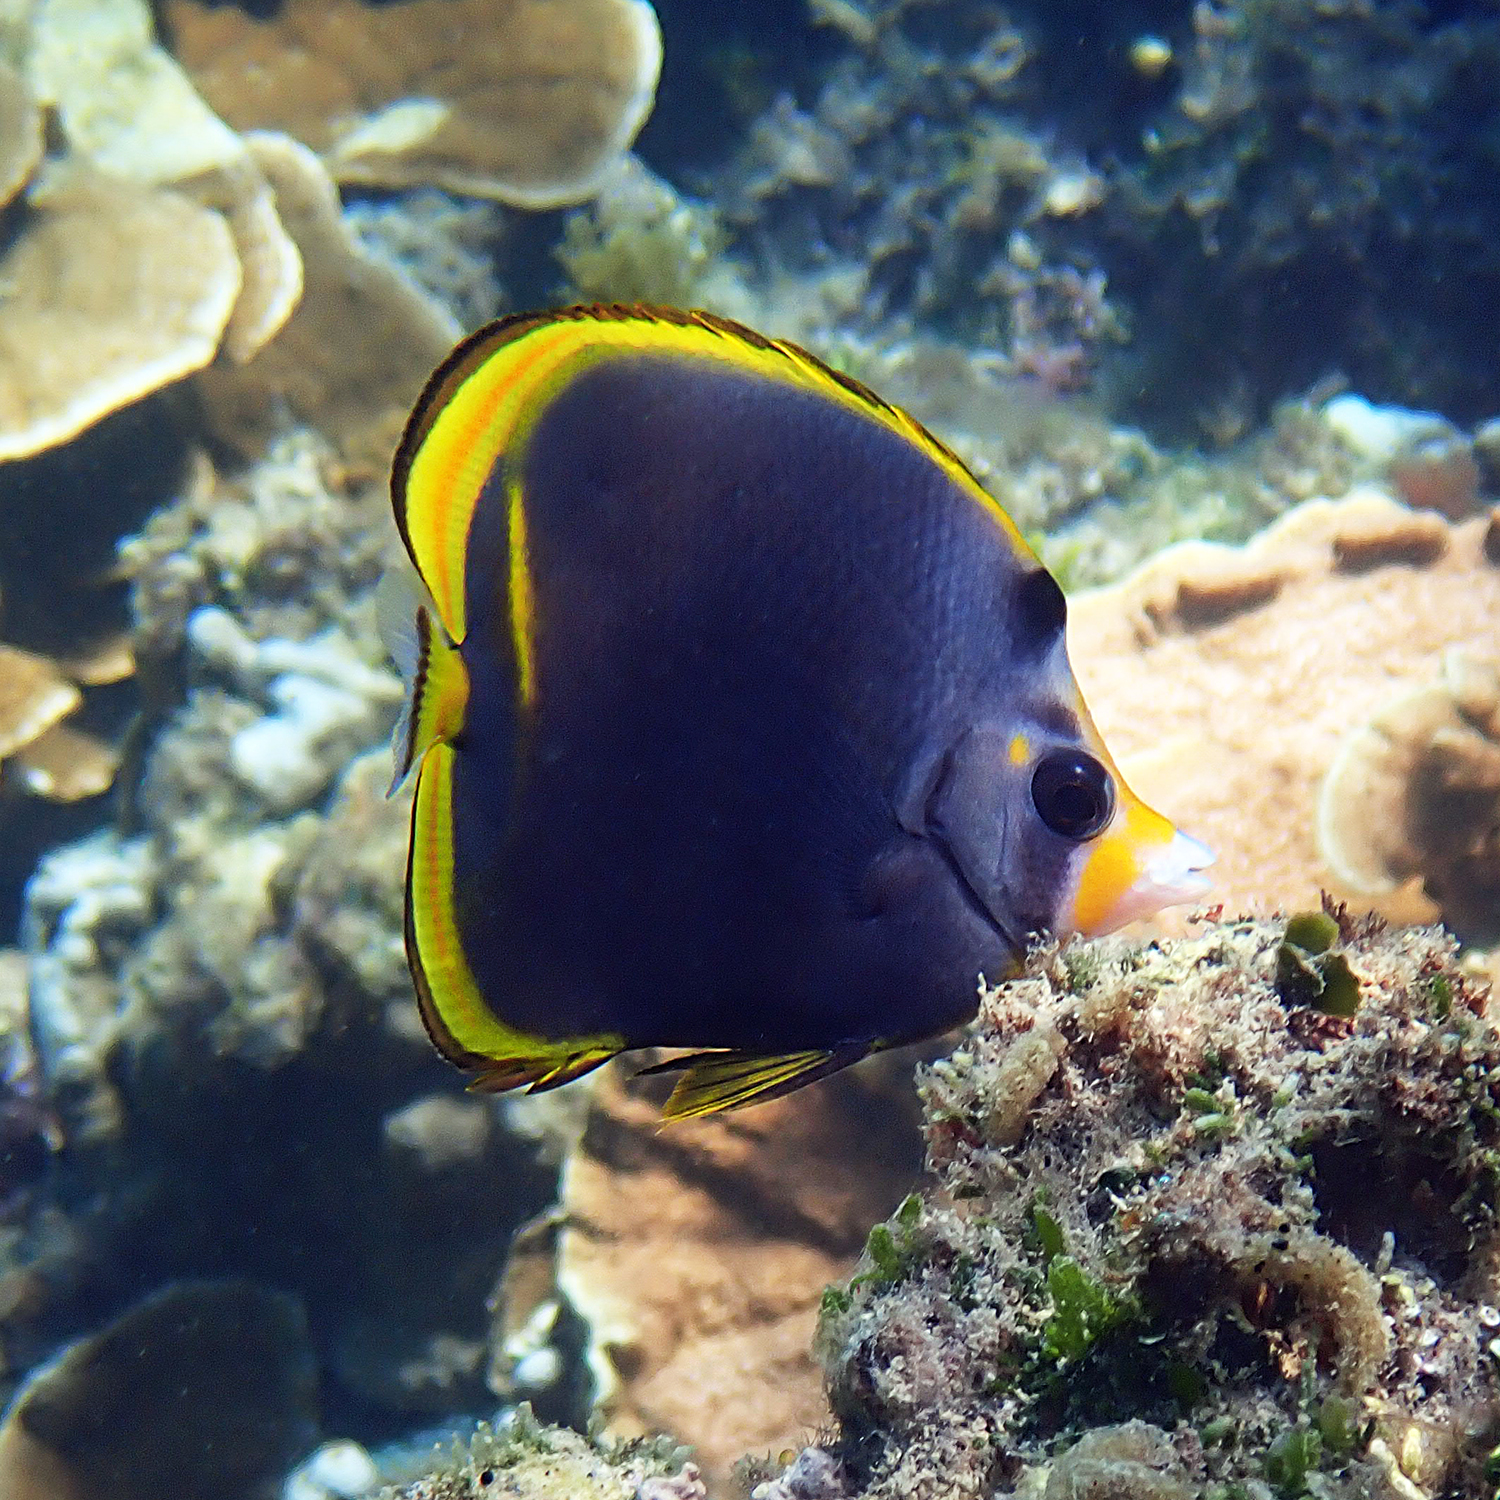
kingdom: Animalia
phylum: Chordata
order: Perciformes
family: Chaetodontidae
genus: Chaetodon
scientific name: Chaetodon flavirostris
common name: Black butterflyfish
